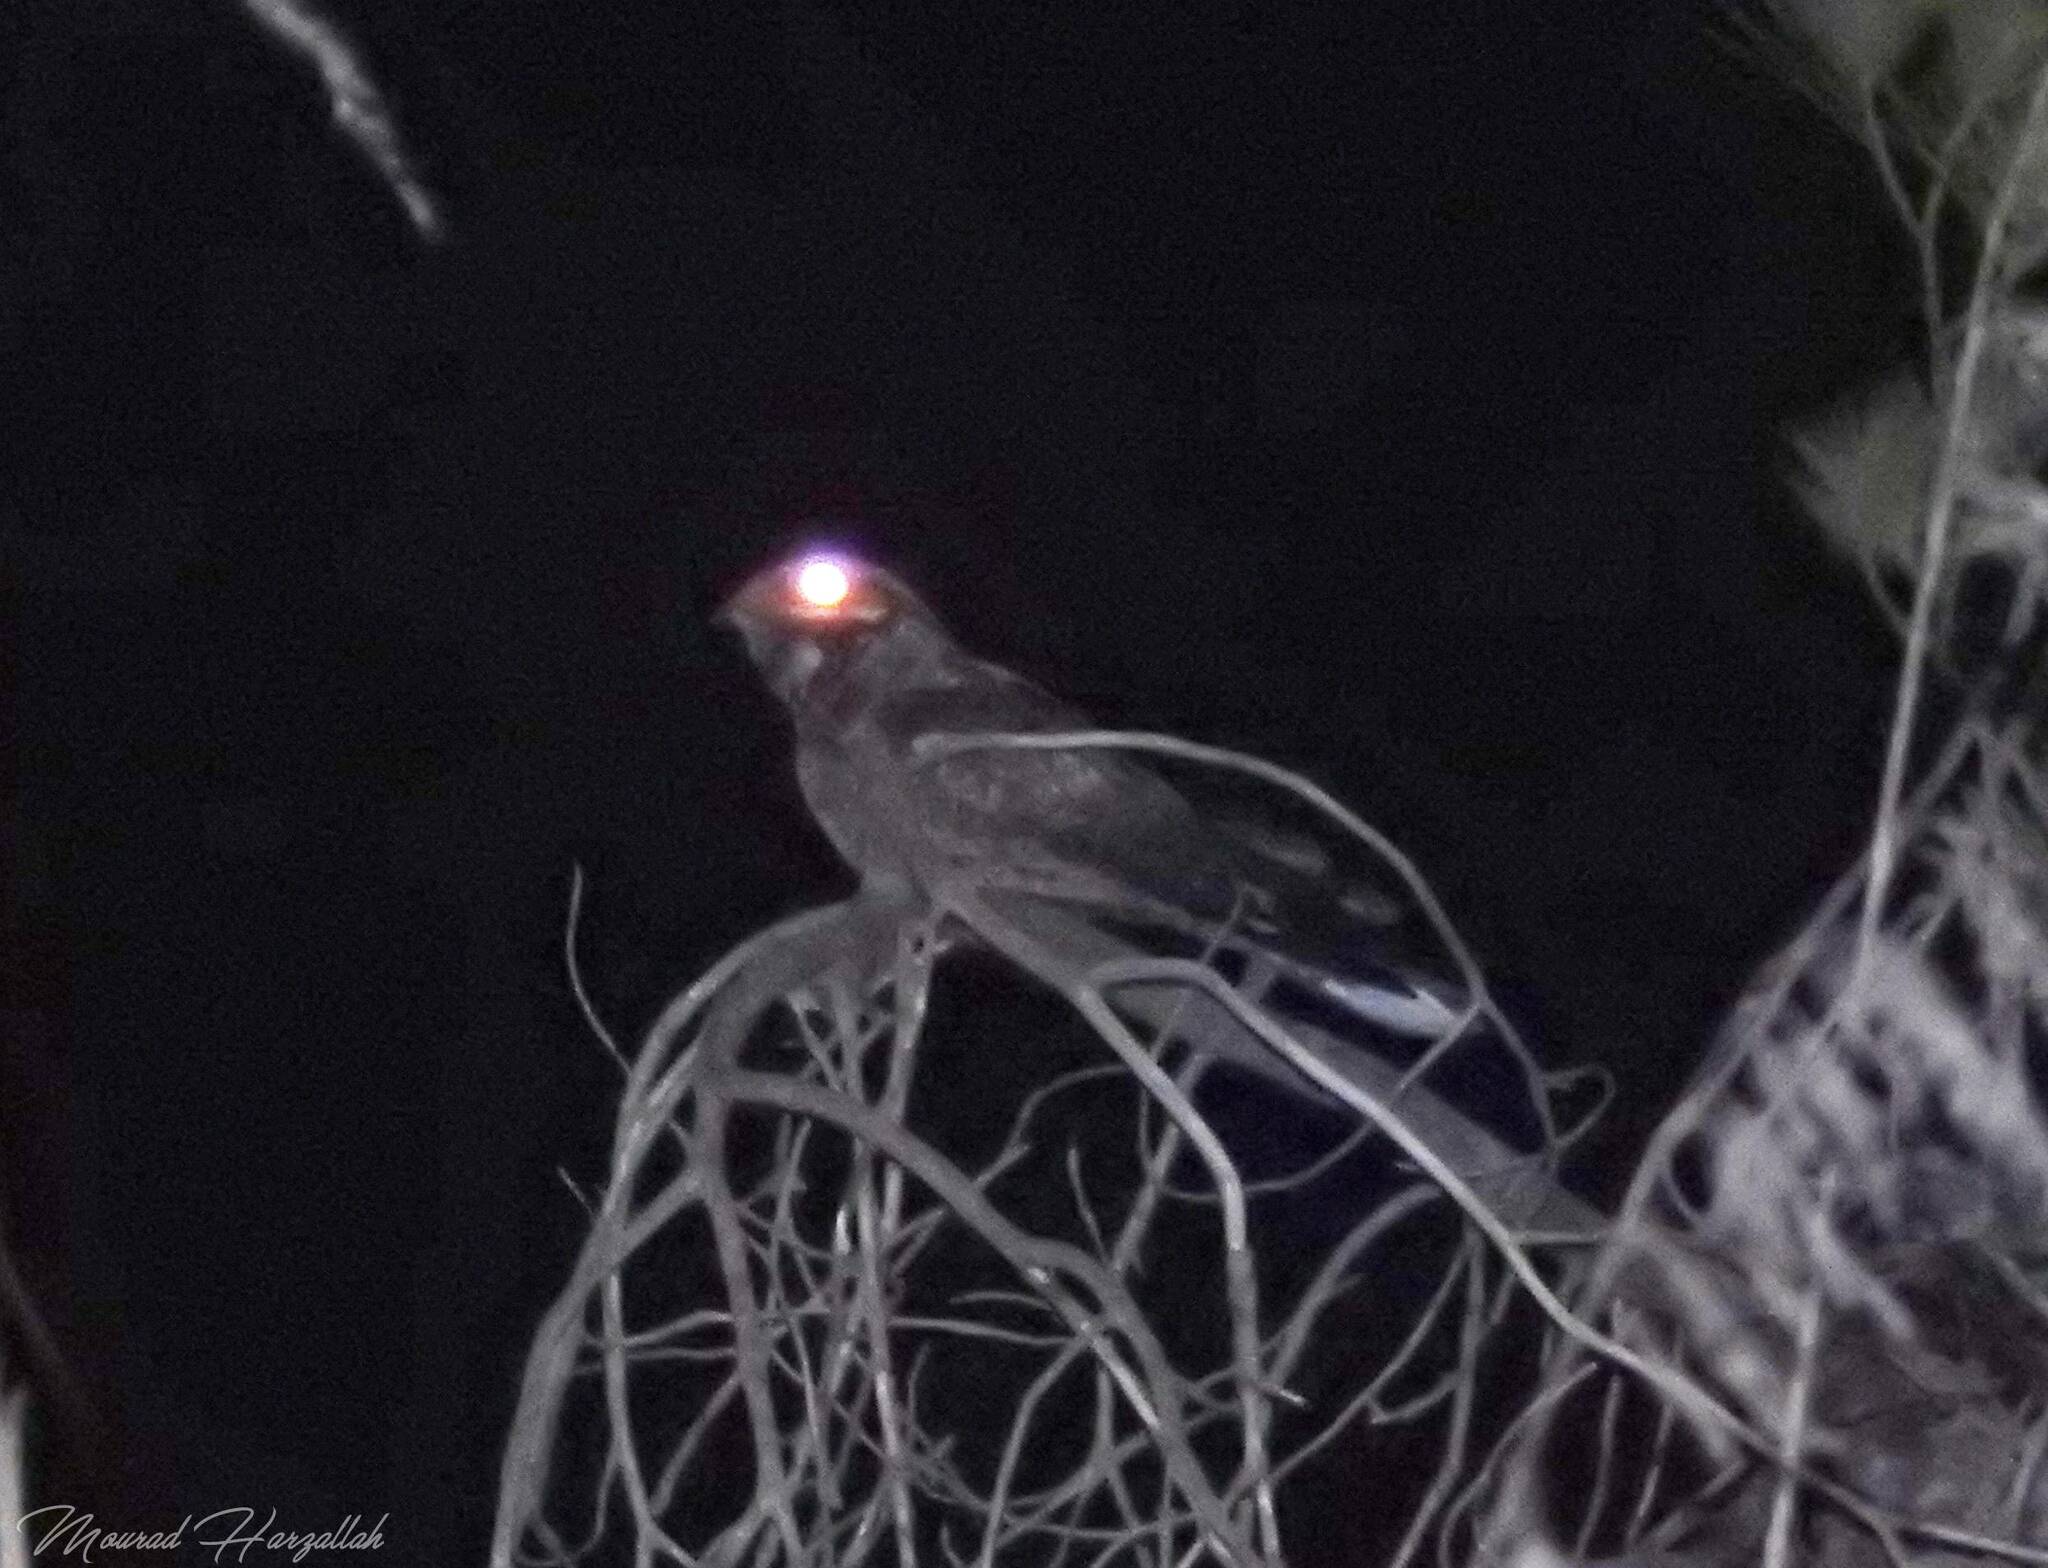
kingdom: Animalia
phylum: Chordata
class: Aves
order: Caprimulgiformes
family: Caprimulgidae
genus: Caprimulgus
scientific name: Caprimulgus europaeus
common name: European nightjar
